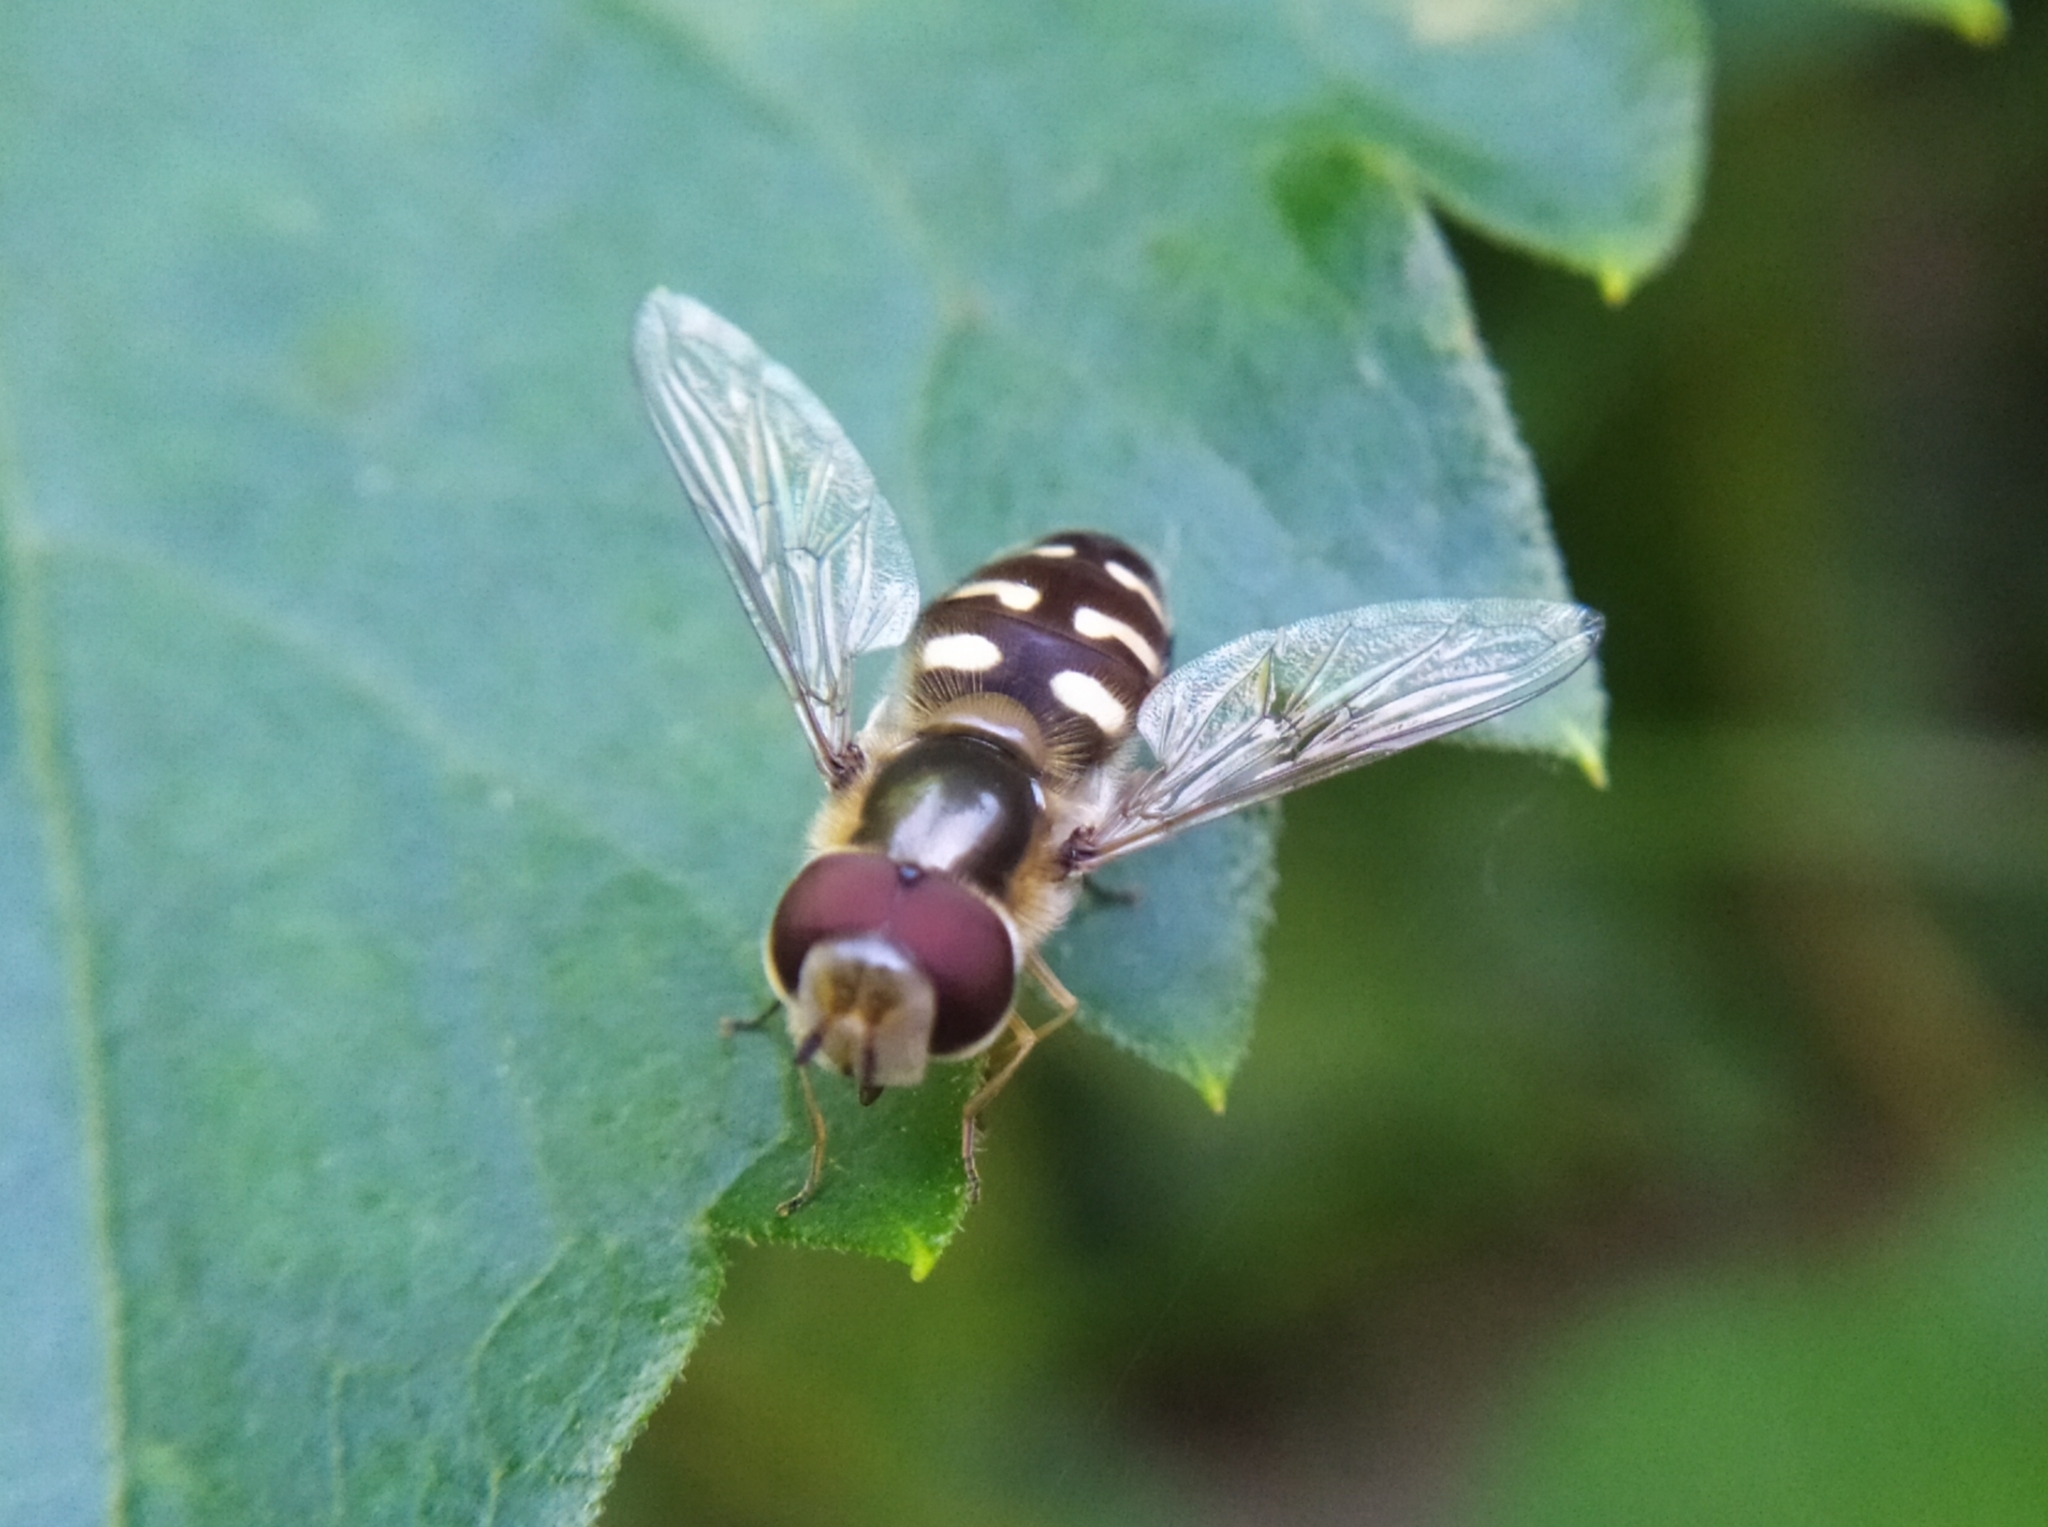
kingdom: Animalia
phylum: Arthropoda
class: Insecta
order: Diptera
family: Syrphidae
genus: Scaeva
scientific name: Scaeva pyrastri
